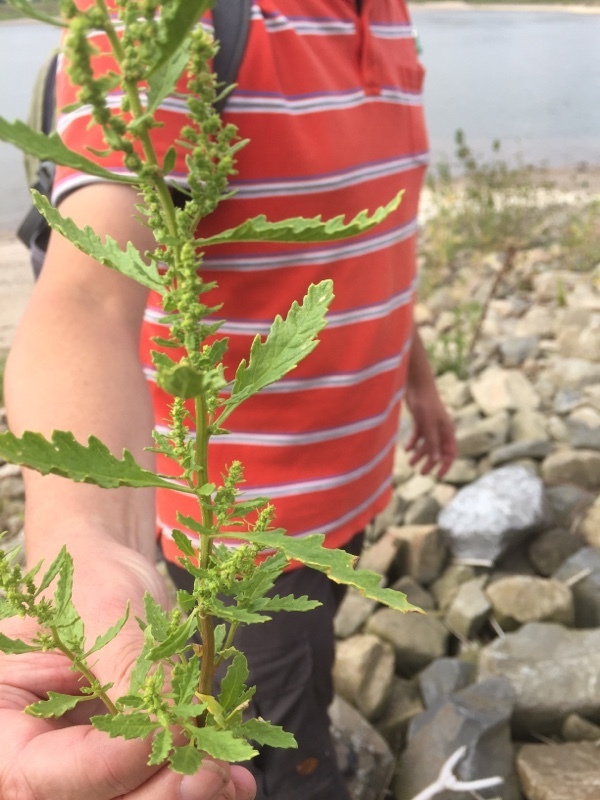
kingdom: Plantae
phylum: Tracheophyta
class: Magnoliopsida
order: Caryophyllales
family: Amaranthaceae
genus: Dysphania
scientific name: Dysphania ambrosioides
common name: Wormseed
